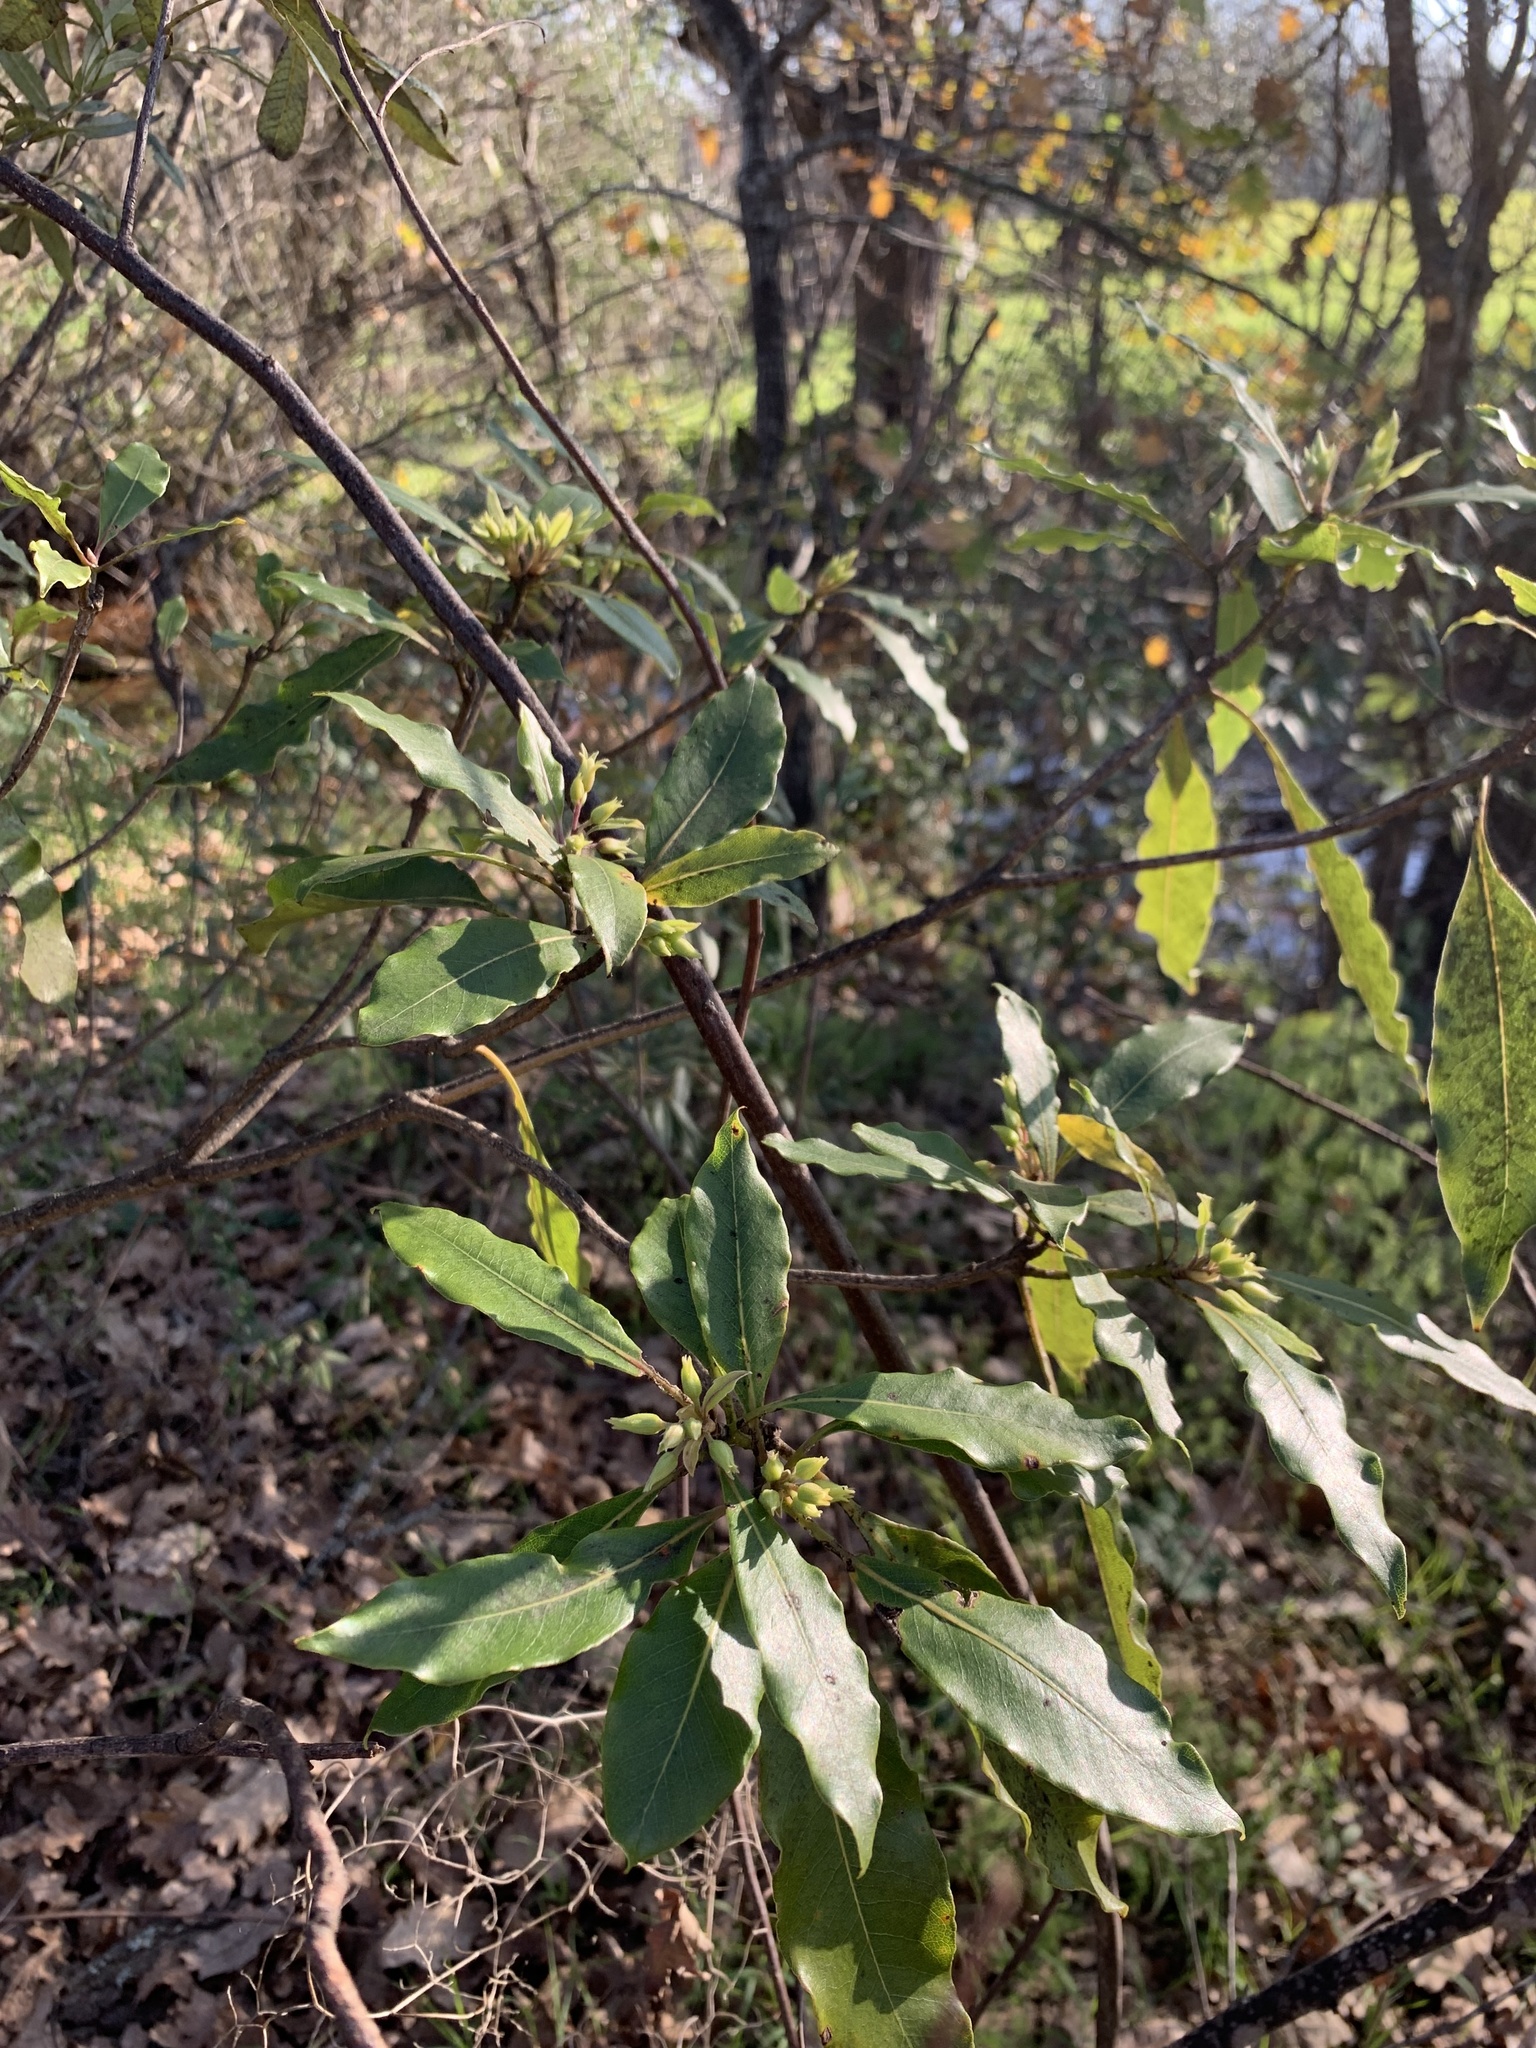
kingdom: Plantae
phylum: Tracheophyta
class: Magnoliopsida
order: Apiales
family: Pittosporaceae
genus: Pittosporum
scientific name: Pittosporum undulatum
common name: Australian cheesewood
